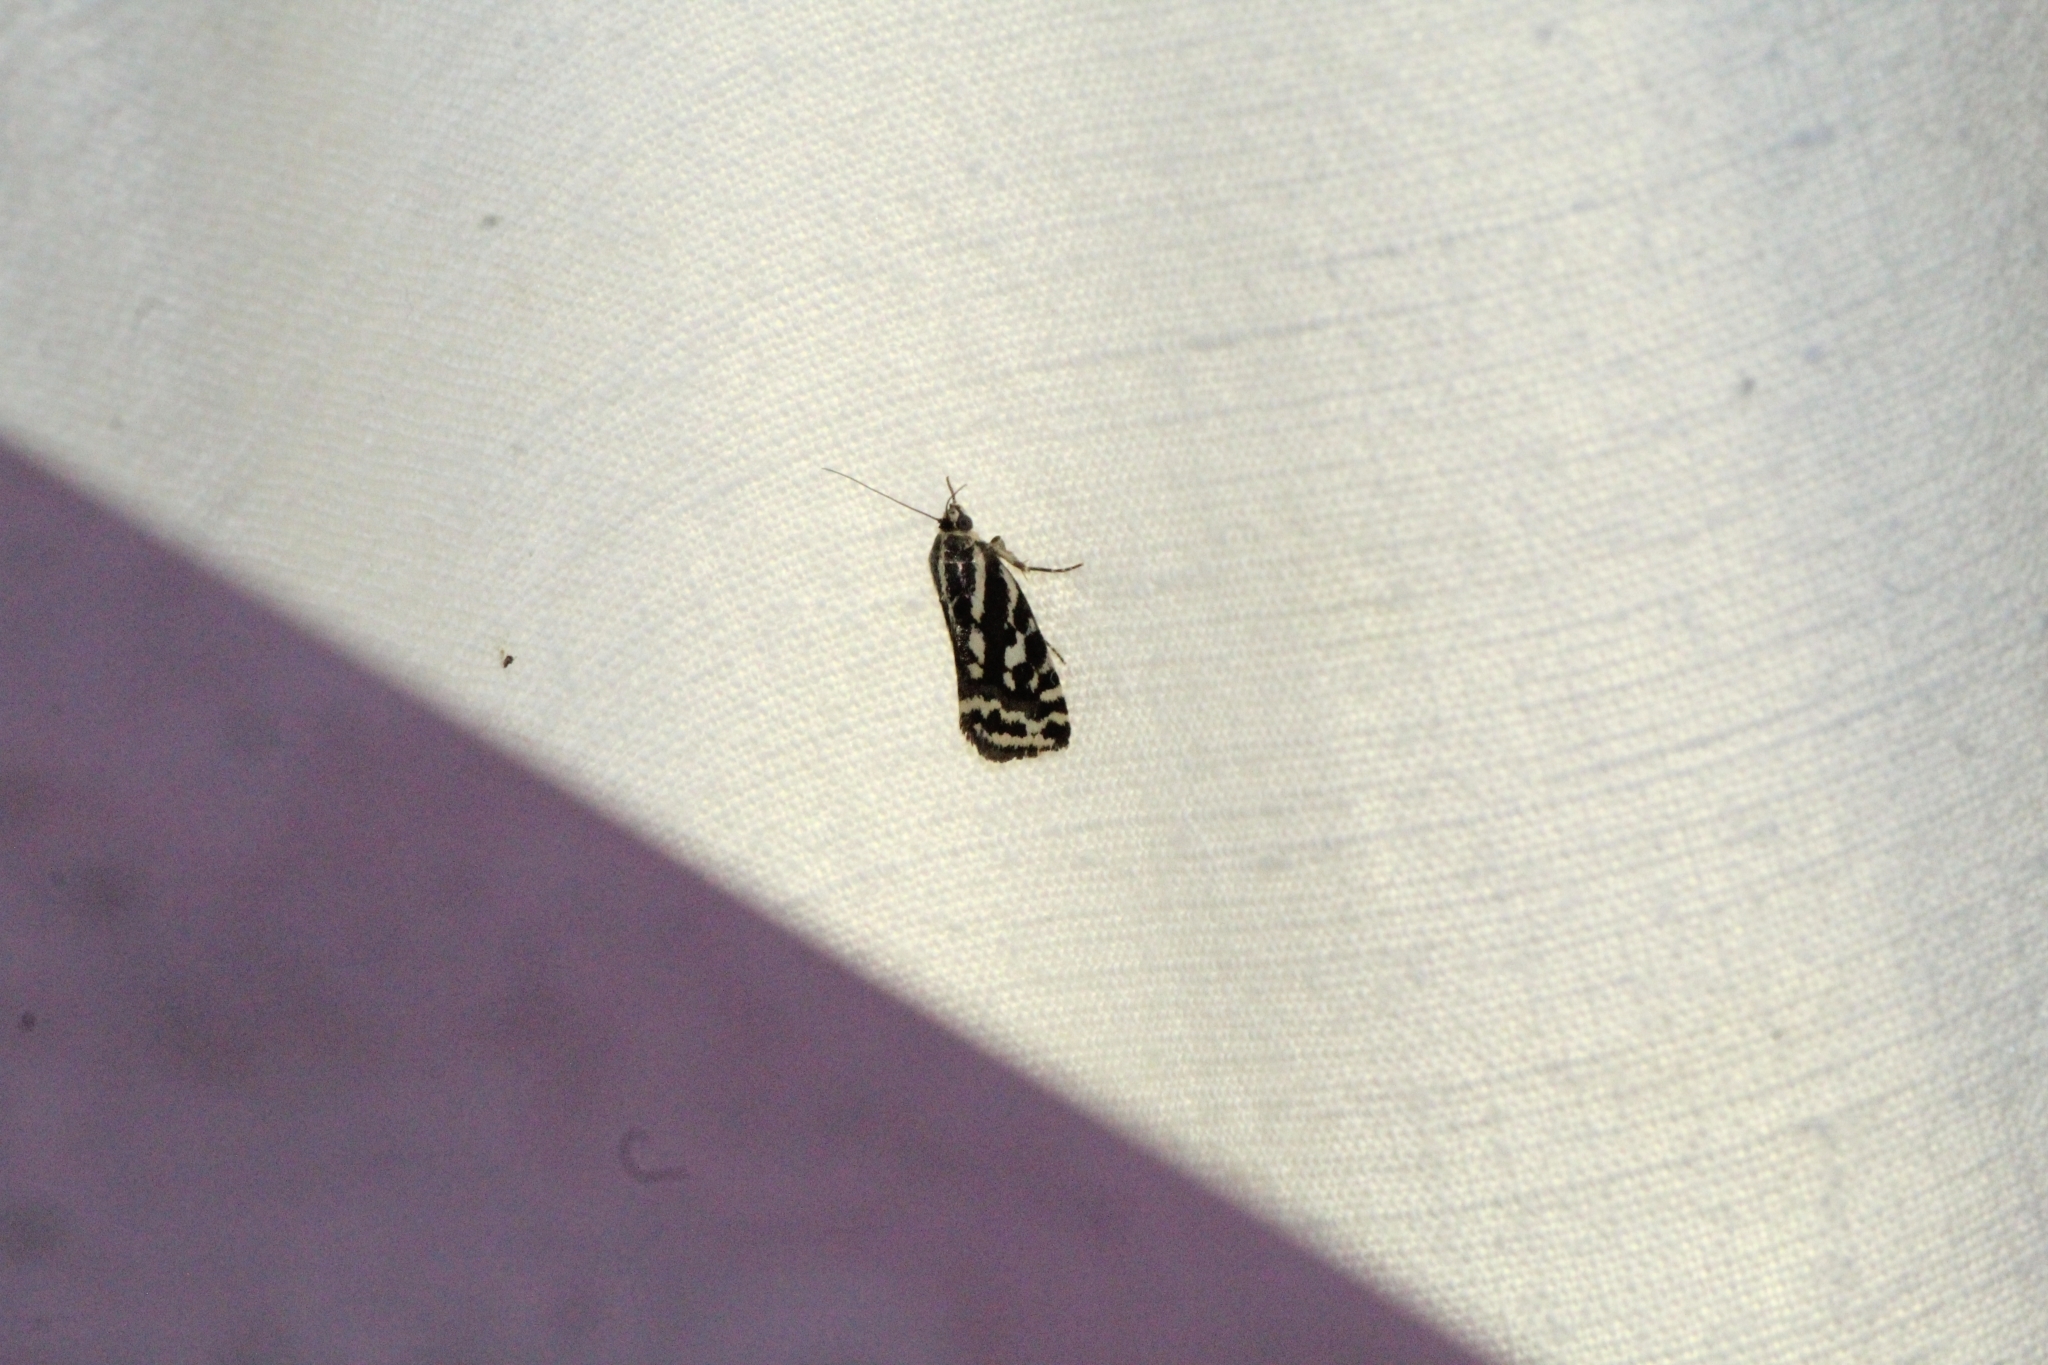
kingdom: Animalia
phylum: Arthropoda
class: Insecta
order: Lepidoptera
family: Noctuidae
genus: Acontia
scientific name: Acontia trabealis
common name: Spotted sulphur
